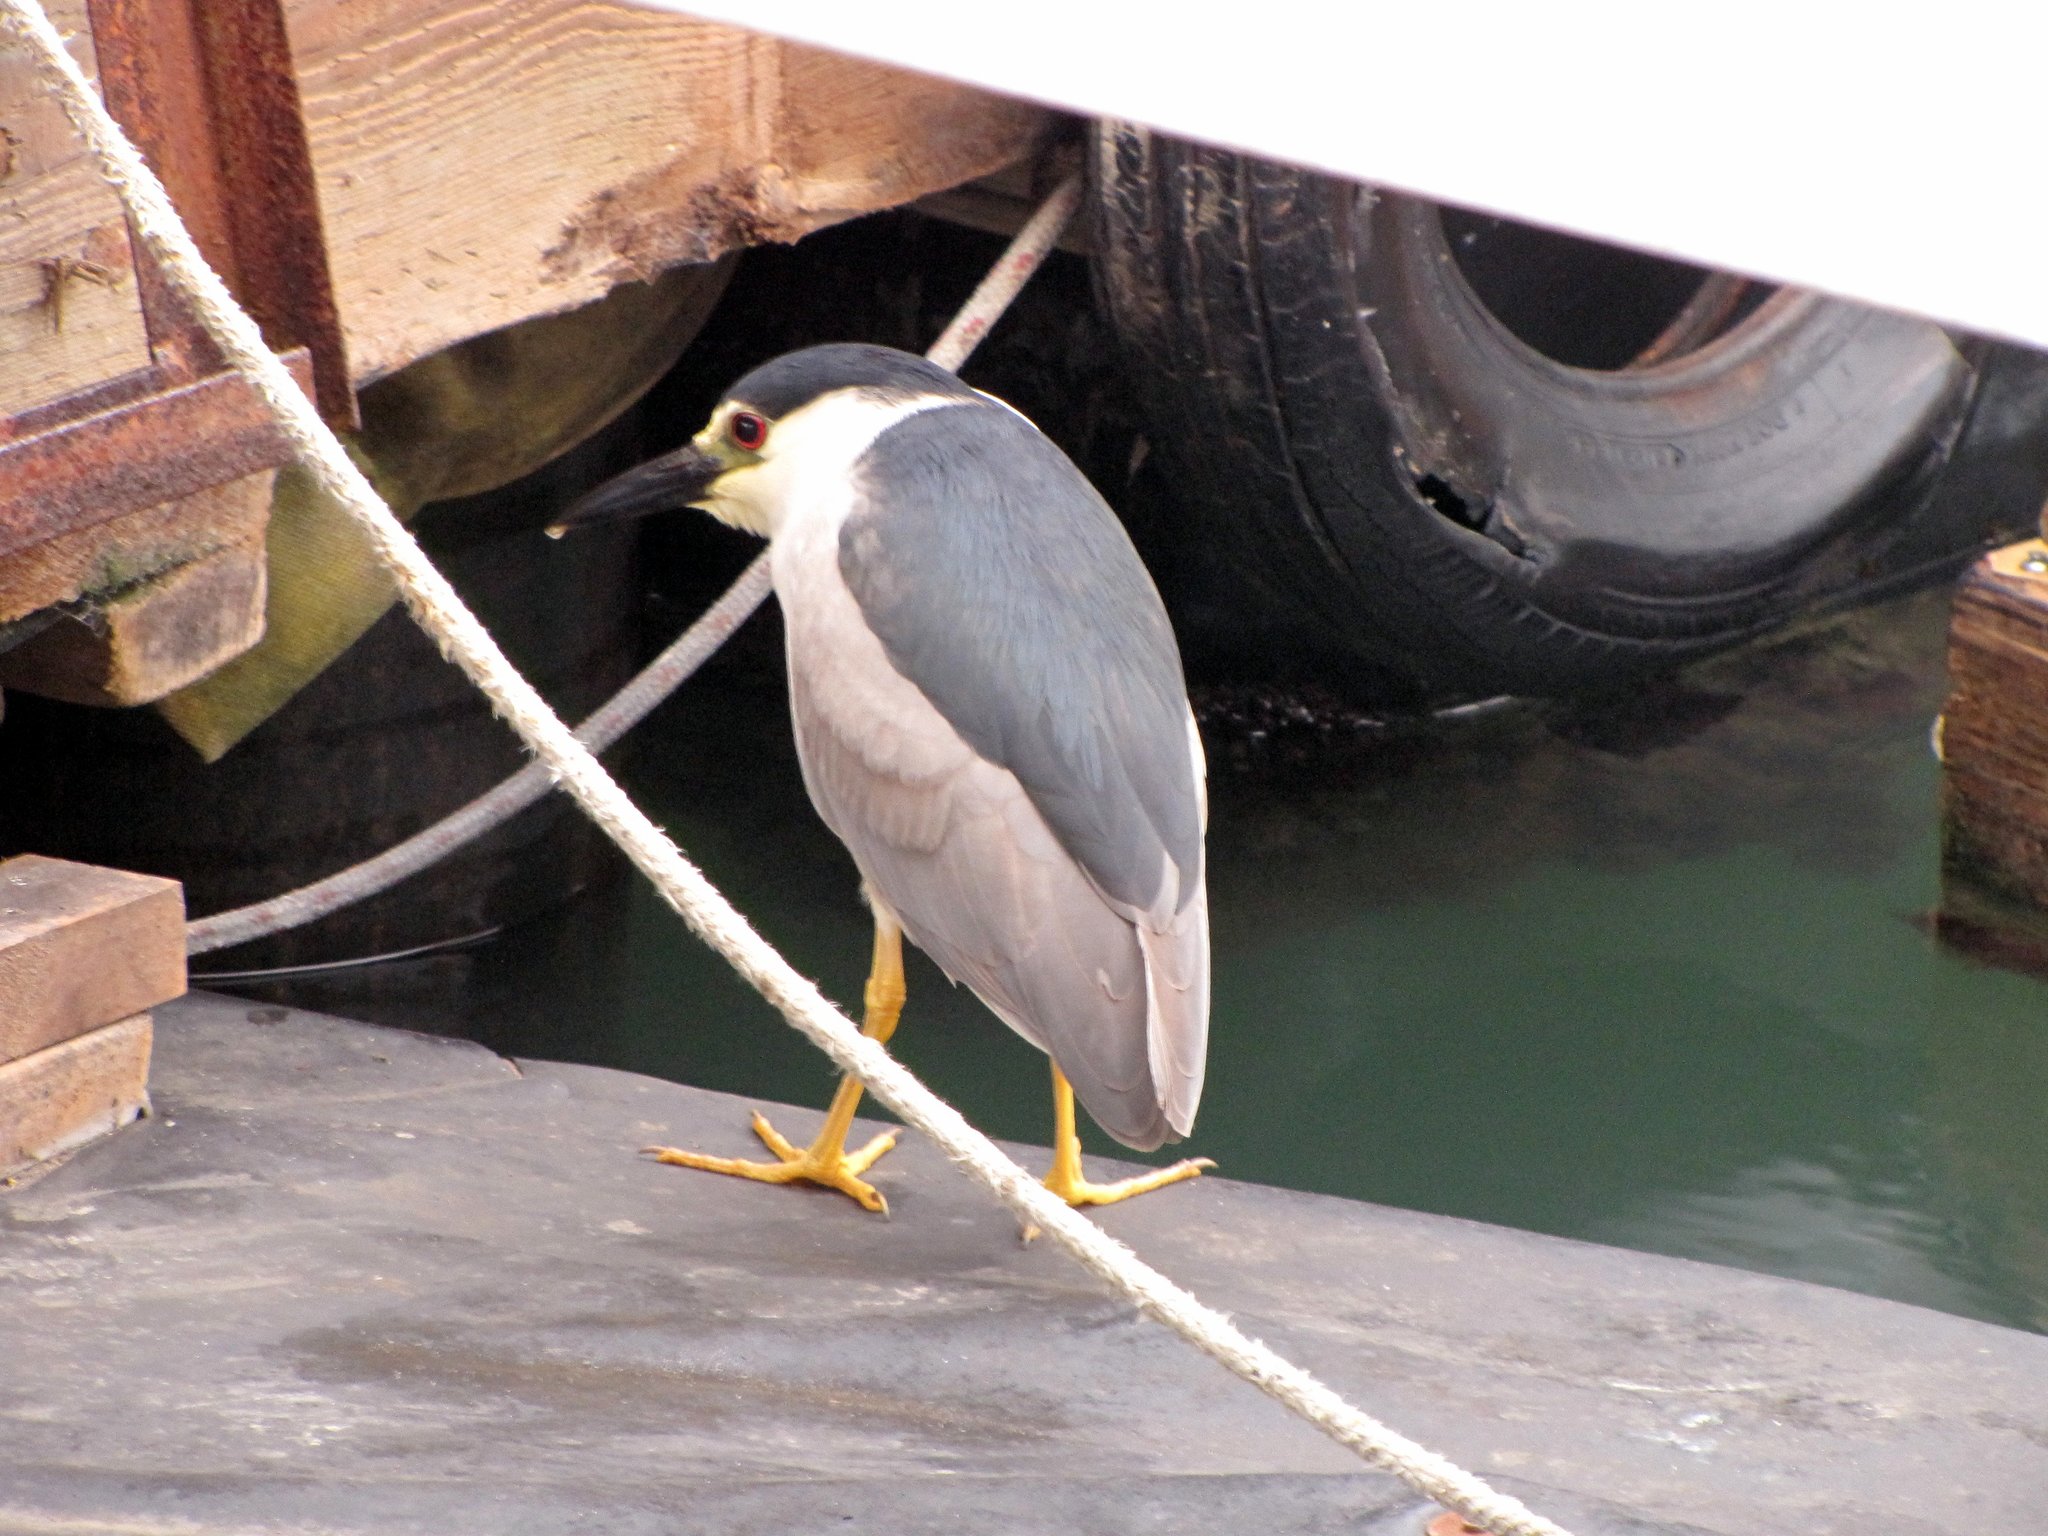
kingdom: Animalia
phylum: Chordata
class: Aves
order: Pelecaniformes
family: Ardeidae
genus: Nycticorax
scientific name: Nycticorax nycticorax
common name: Black-crowned night heron
